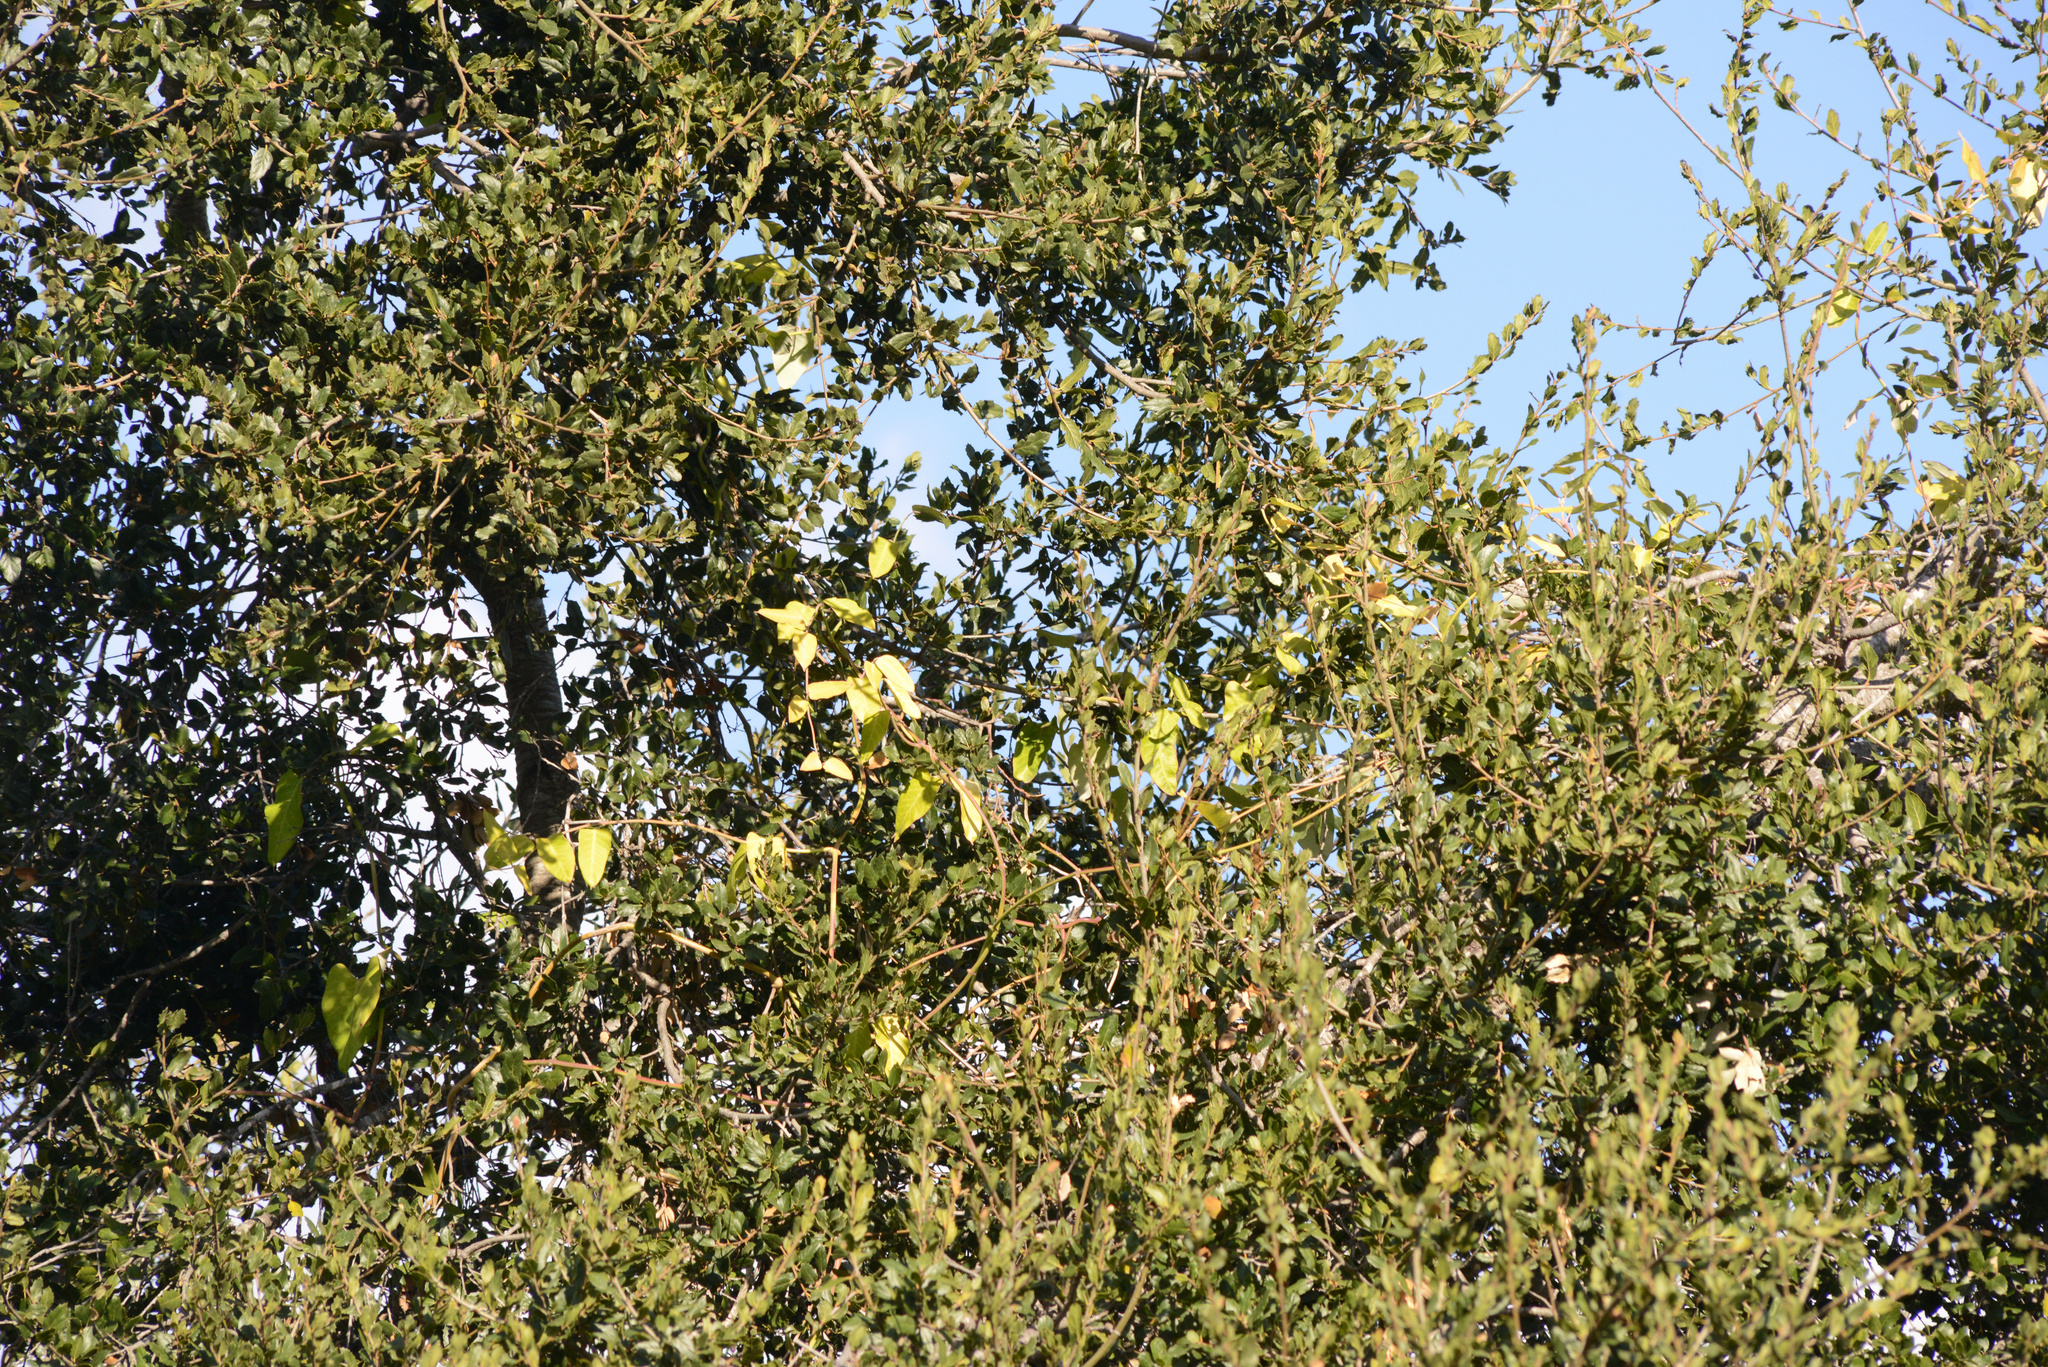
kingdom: Plantae
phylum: Tracheophyta
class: Magnoliopsida
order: Gentianales
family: Apocynaceae
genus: Araujia
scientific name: Araujia sericifera
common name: White bladderflower
